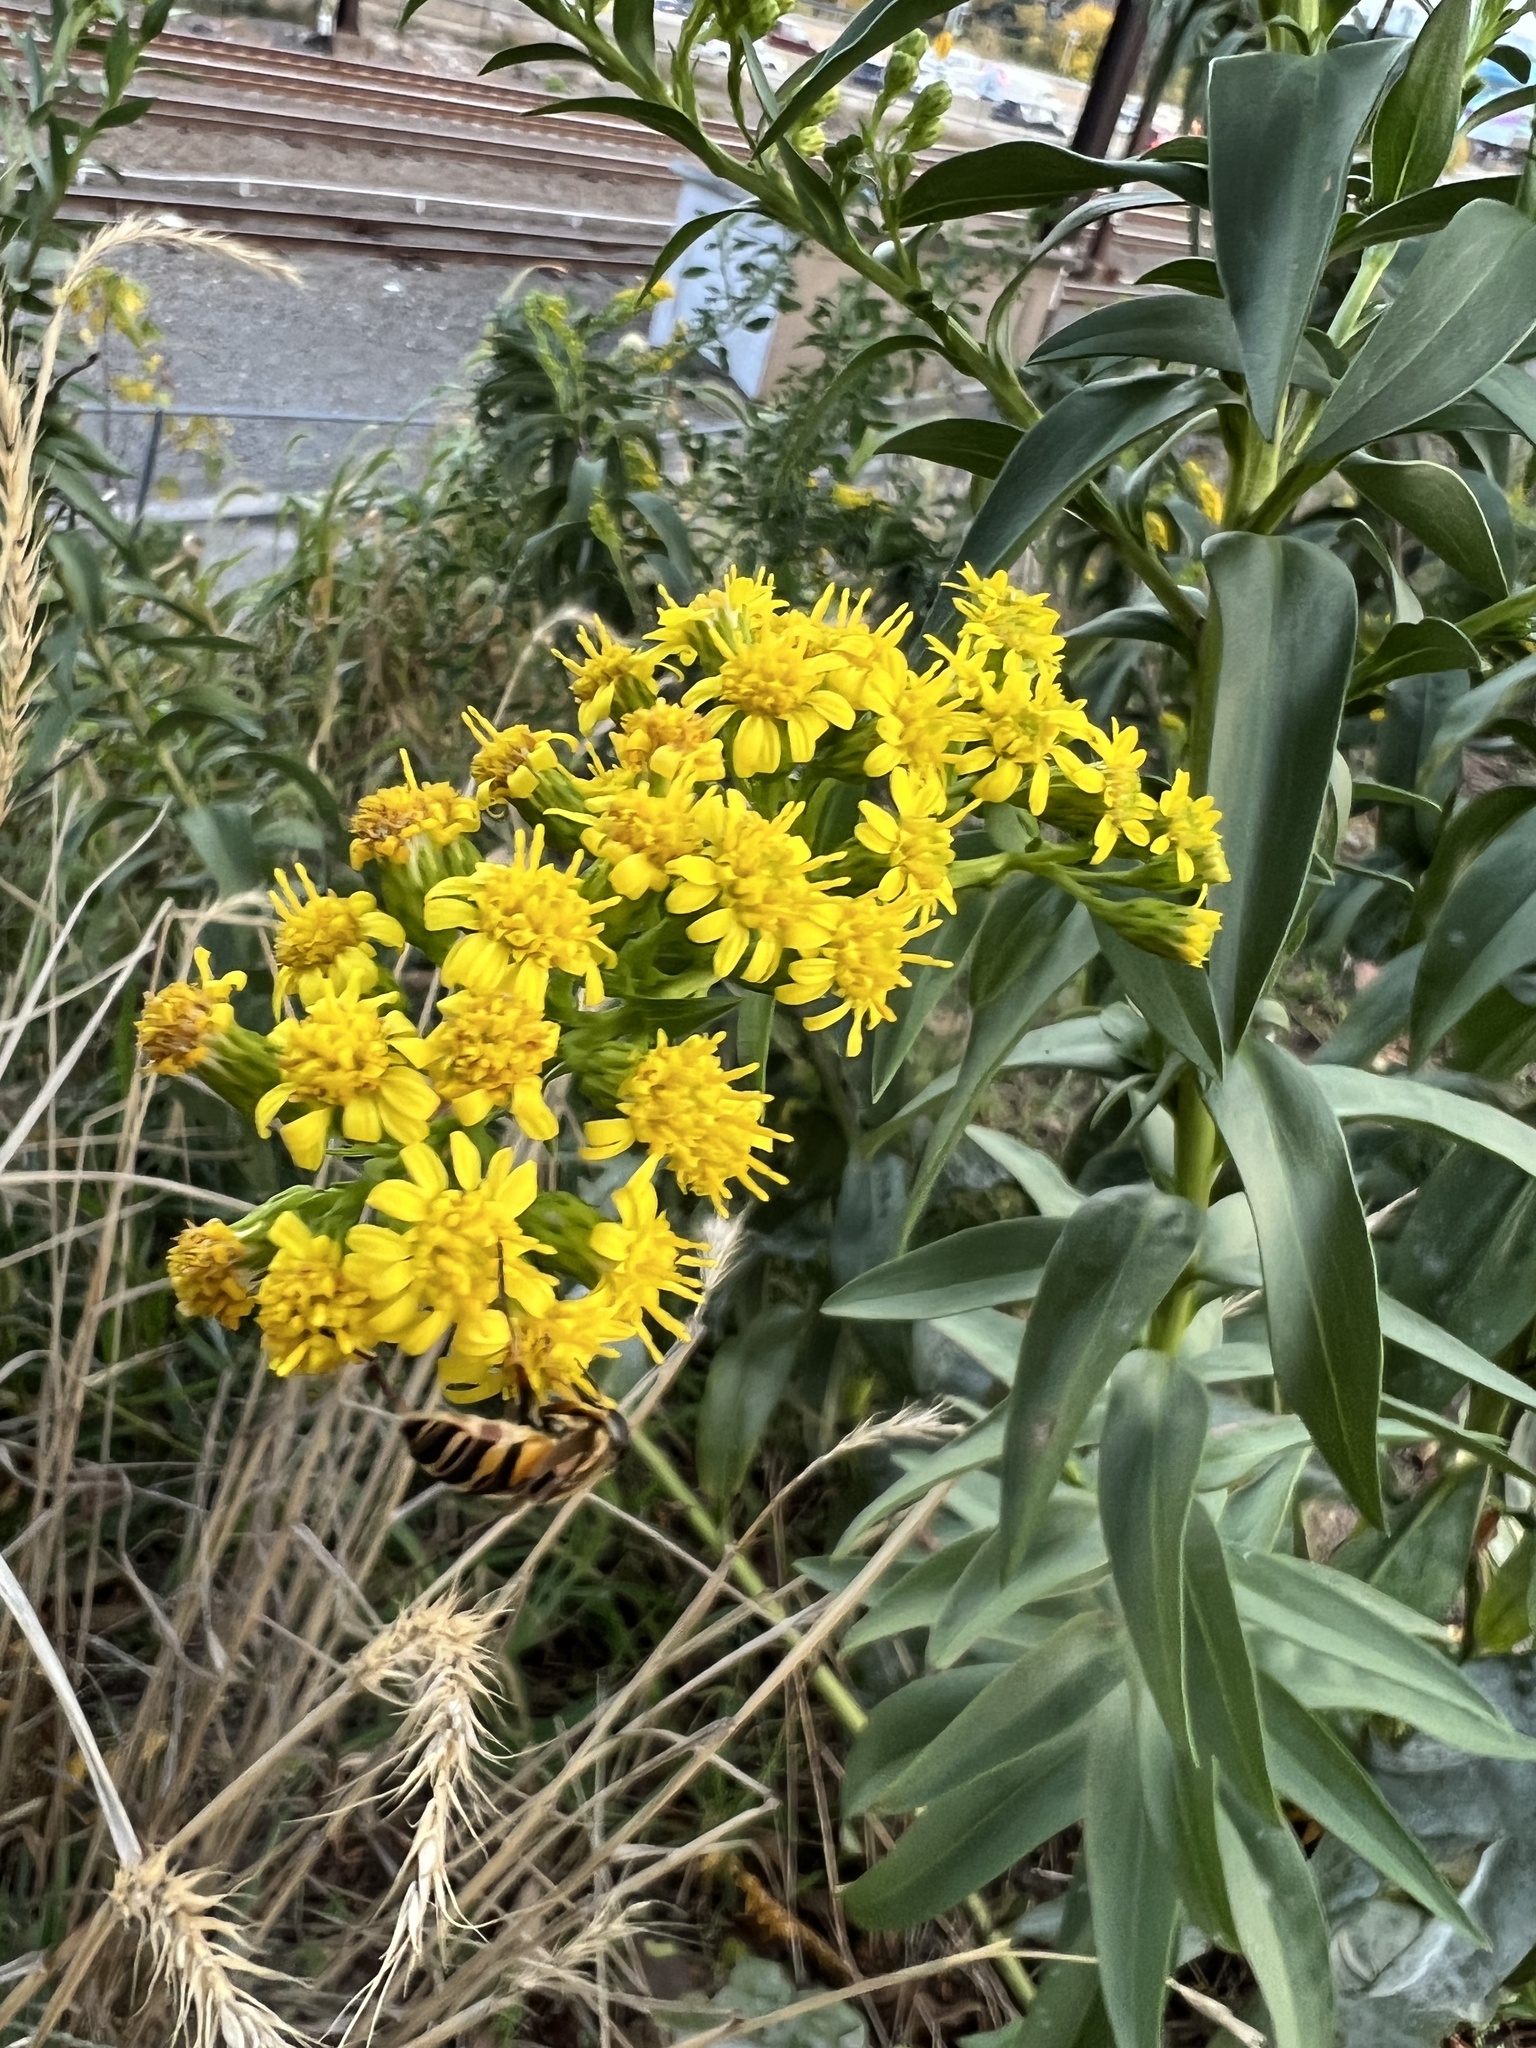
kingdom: Plantae
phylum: Tracheophyta
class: Magnoliopsida
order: Asterales
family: Asteraceae
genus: Solidago
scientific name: Solidago sempervirens
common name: Salt-marsh goldenrod
